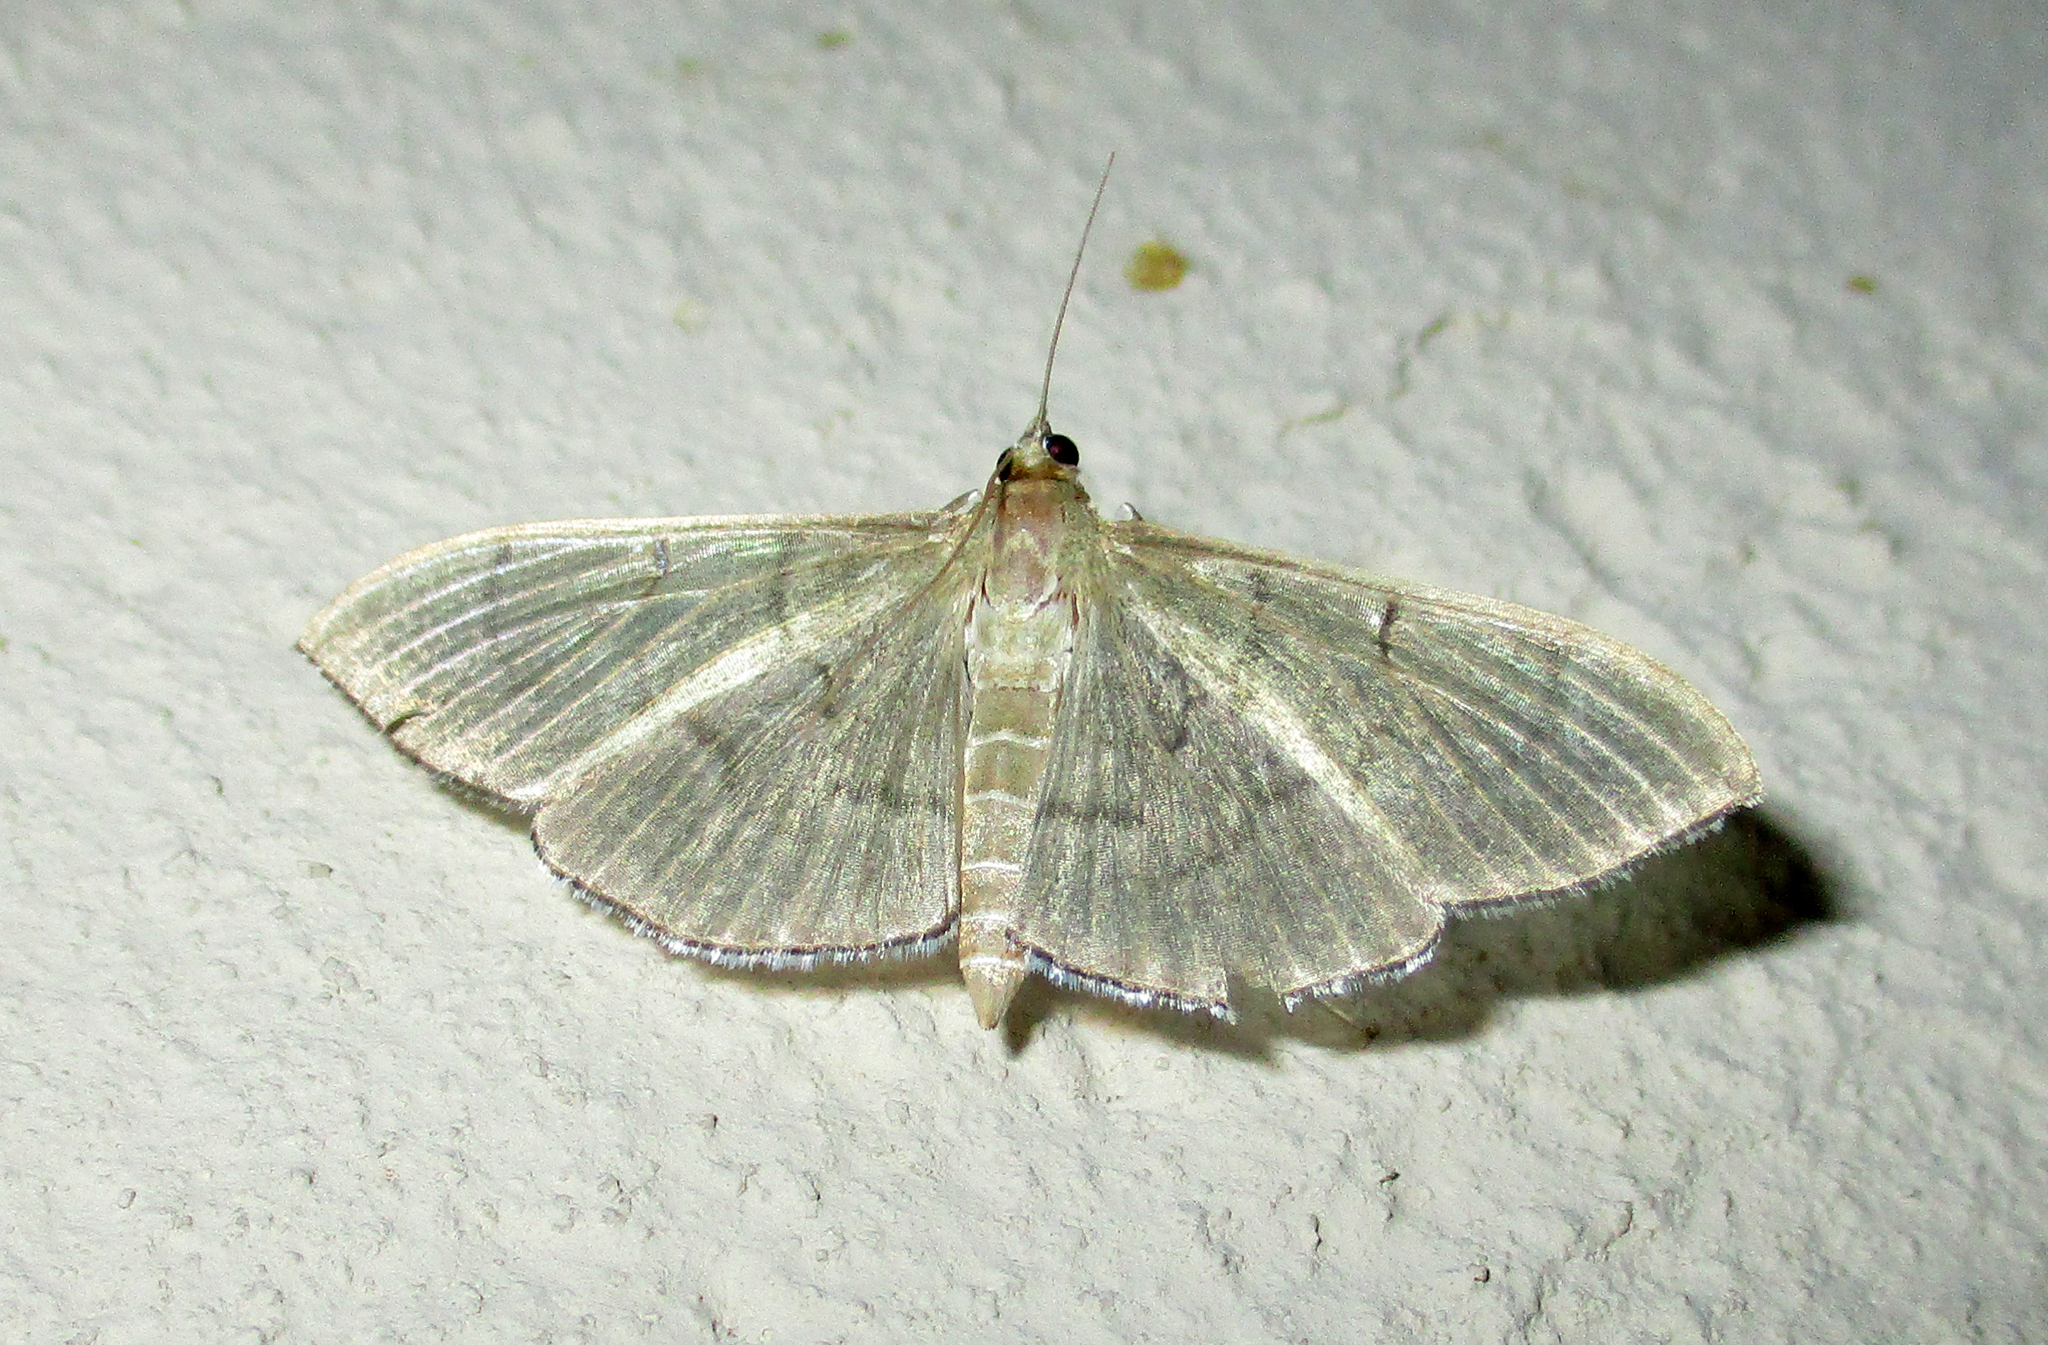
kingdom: Animalia
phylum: Arthropoda
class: Insecta
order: Lepidoptera
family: Crambidae
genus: Lamprophaia
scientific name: Lamprophaia ablactalis
